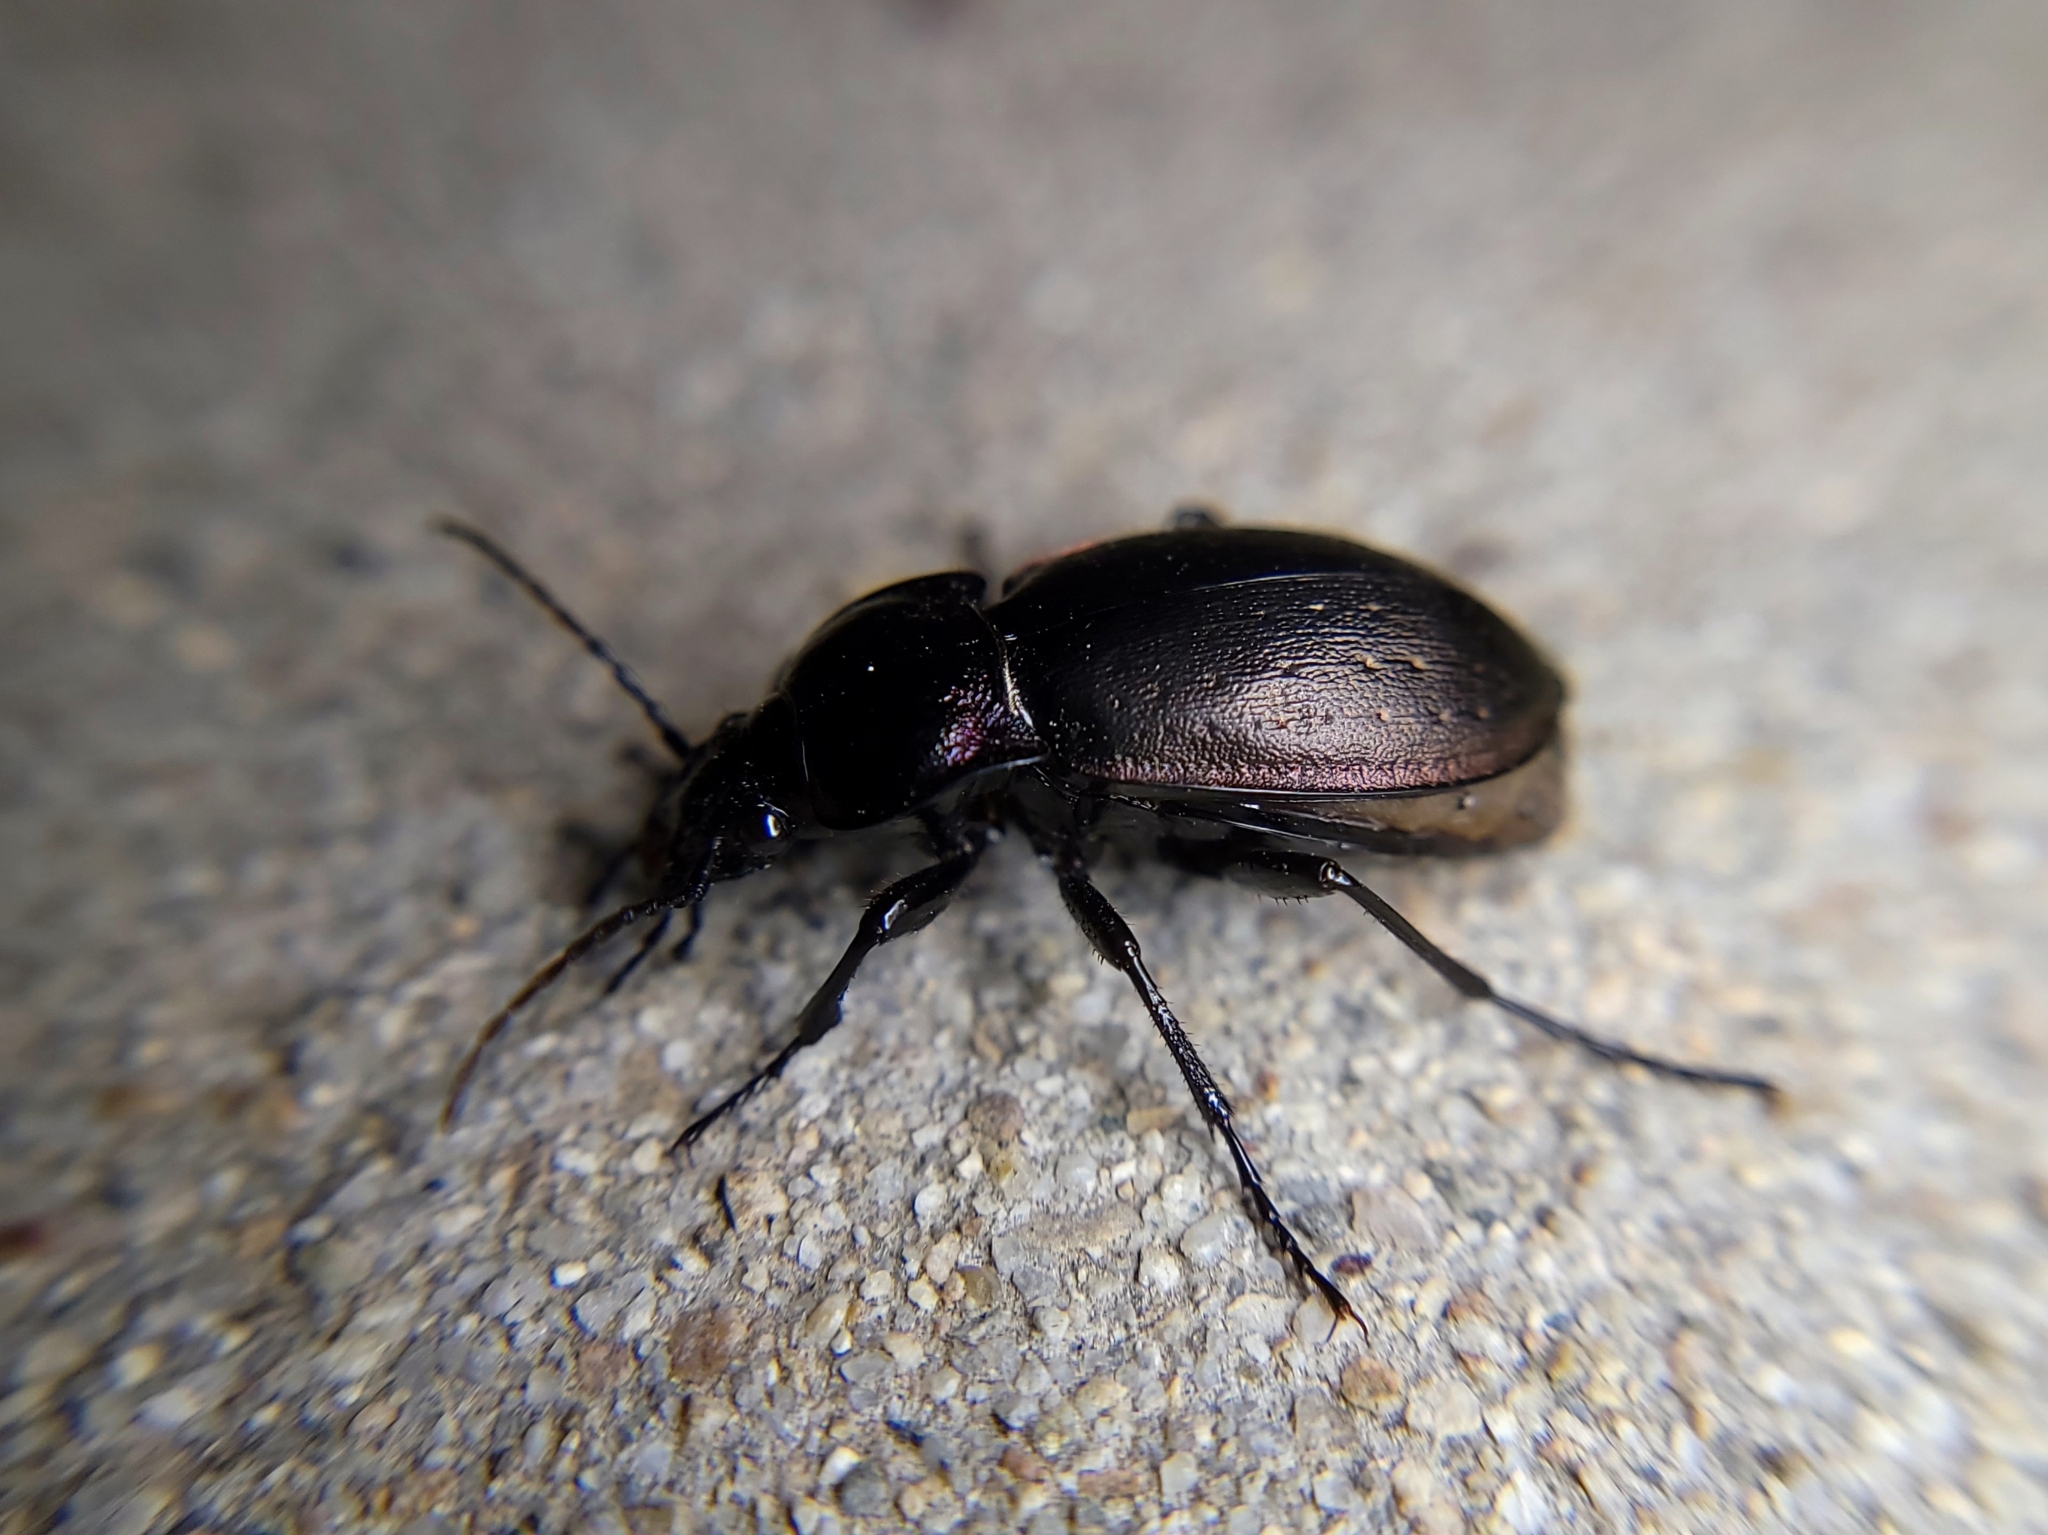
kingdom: Animalia
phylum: Arthropoda
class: Insecta
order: Coleoptera
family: Carabidae
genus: Carabus
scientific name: Carabus nemoralis
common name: European ground beetle
